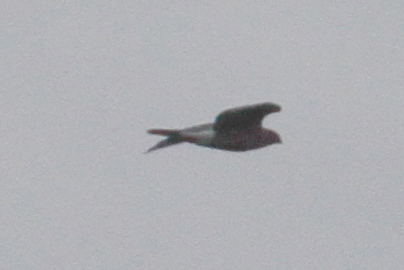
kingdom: Animalia
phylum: Chordata
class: Aves
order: Accipitriformes
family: Accipitridae
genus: Accipiter
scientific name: Accipiter cooperii
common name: Cooper's hawk
